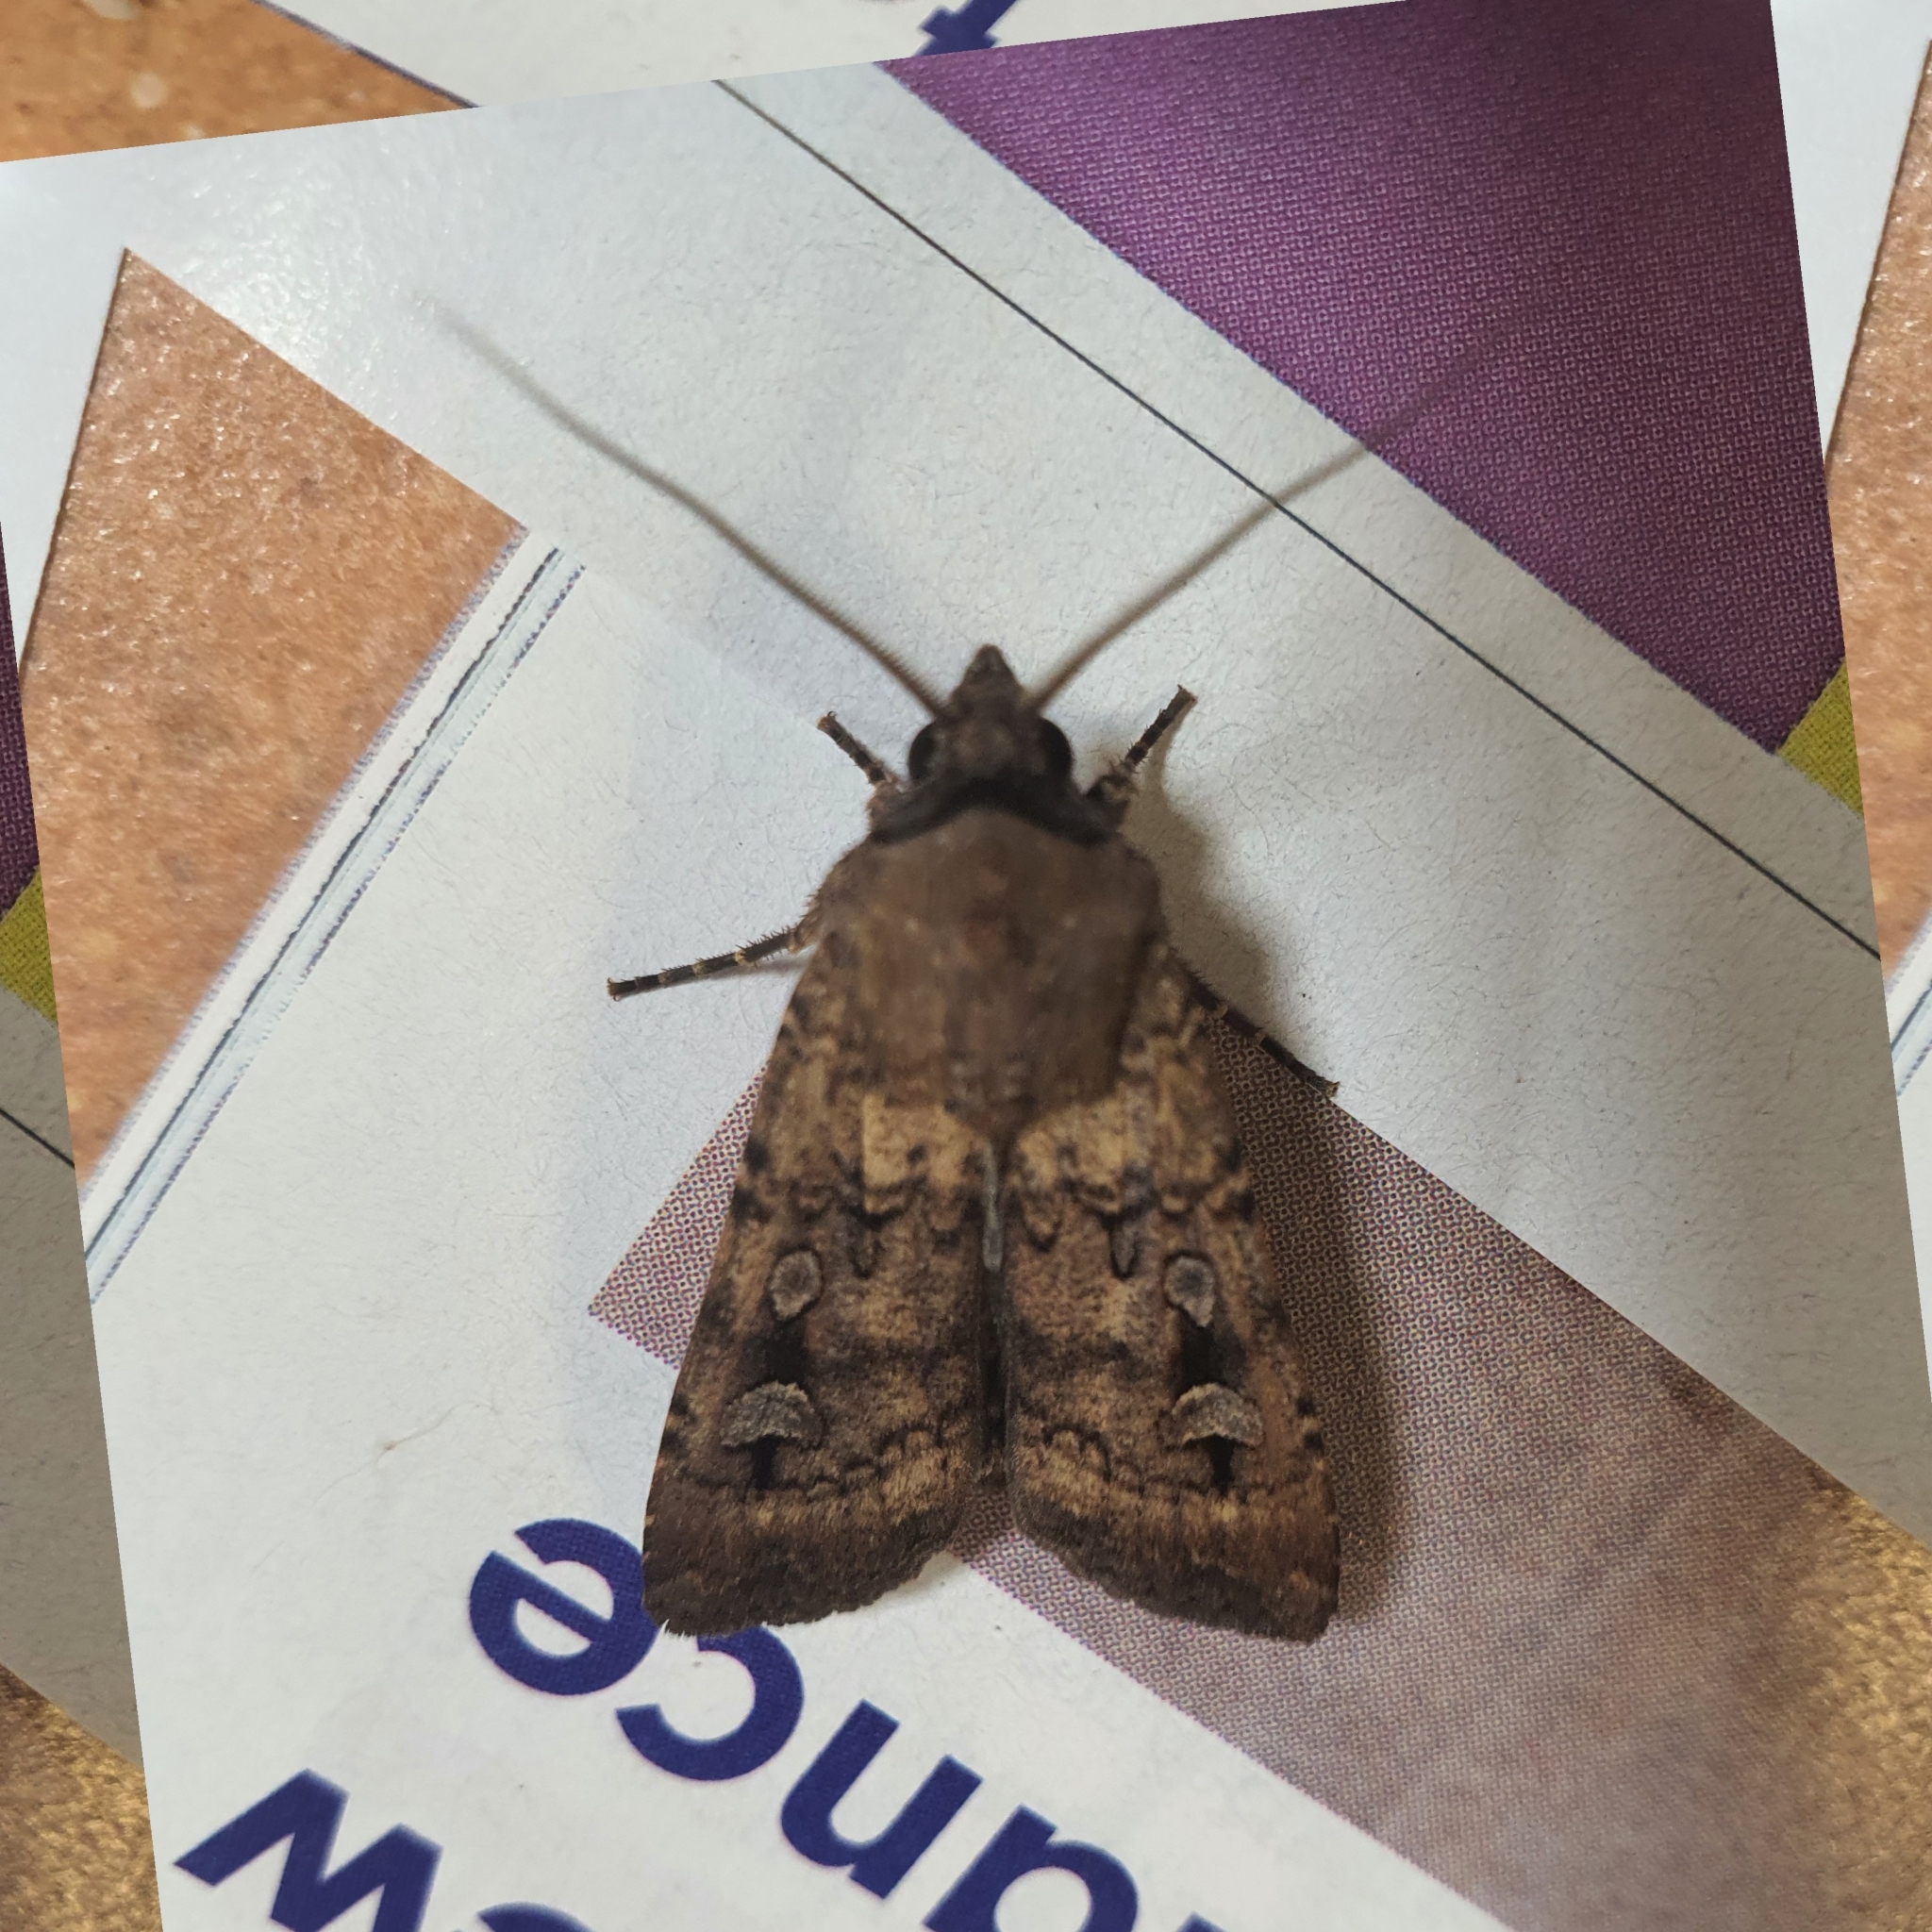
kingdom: Animalia
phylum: Arthropoda
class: Insecta
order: Lepidoptera
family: Noctuidae
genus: Agrotis
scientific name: Agrotis infusa
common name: Bogong moth
